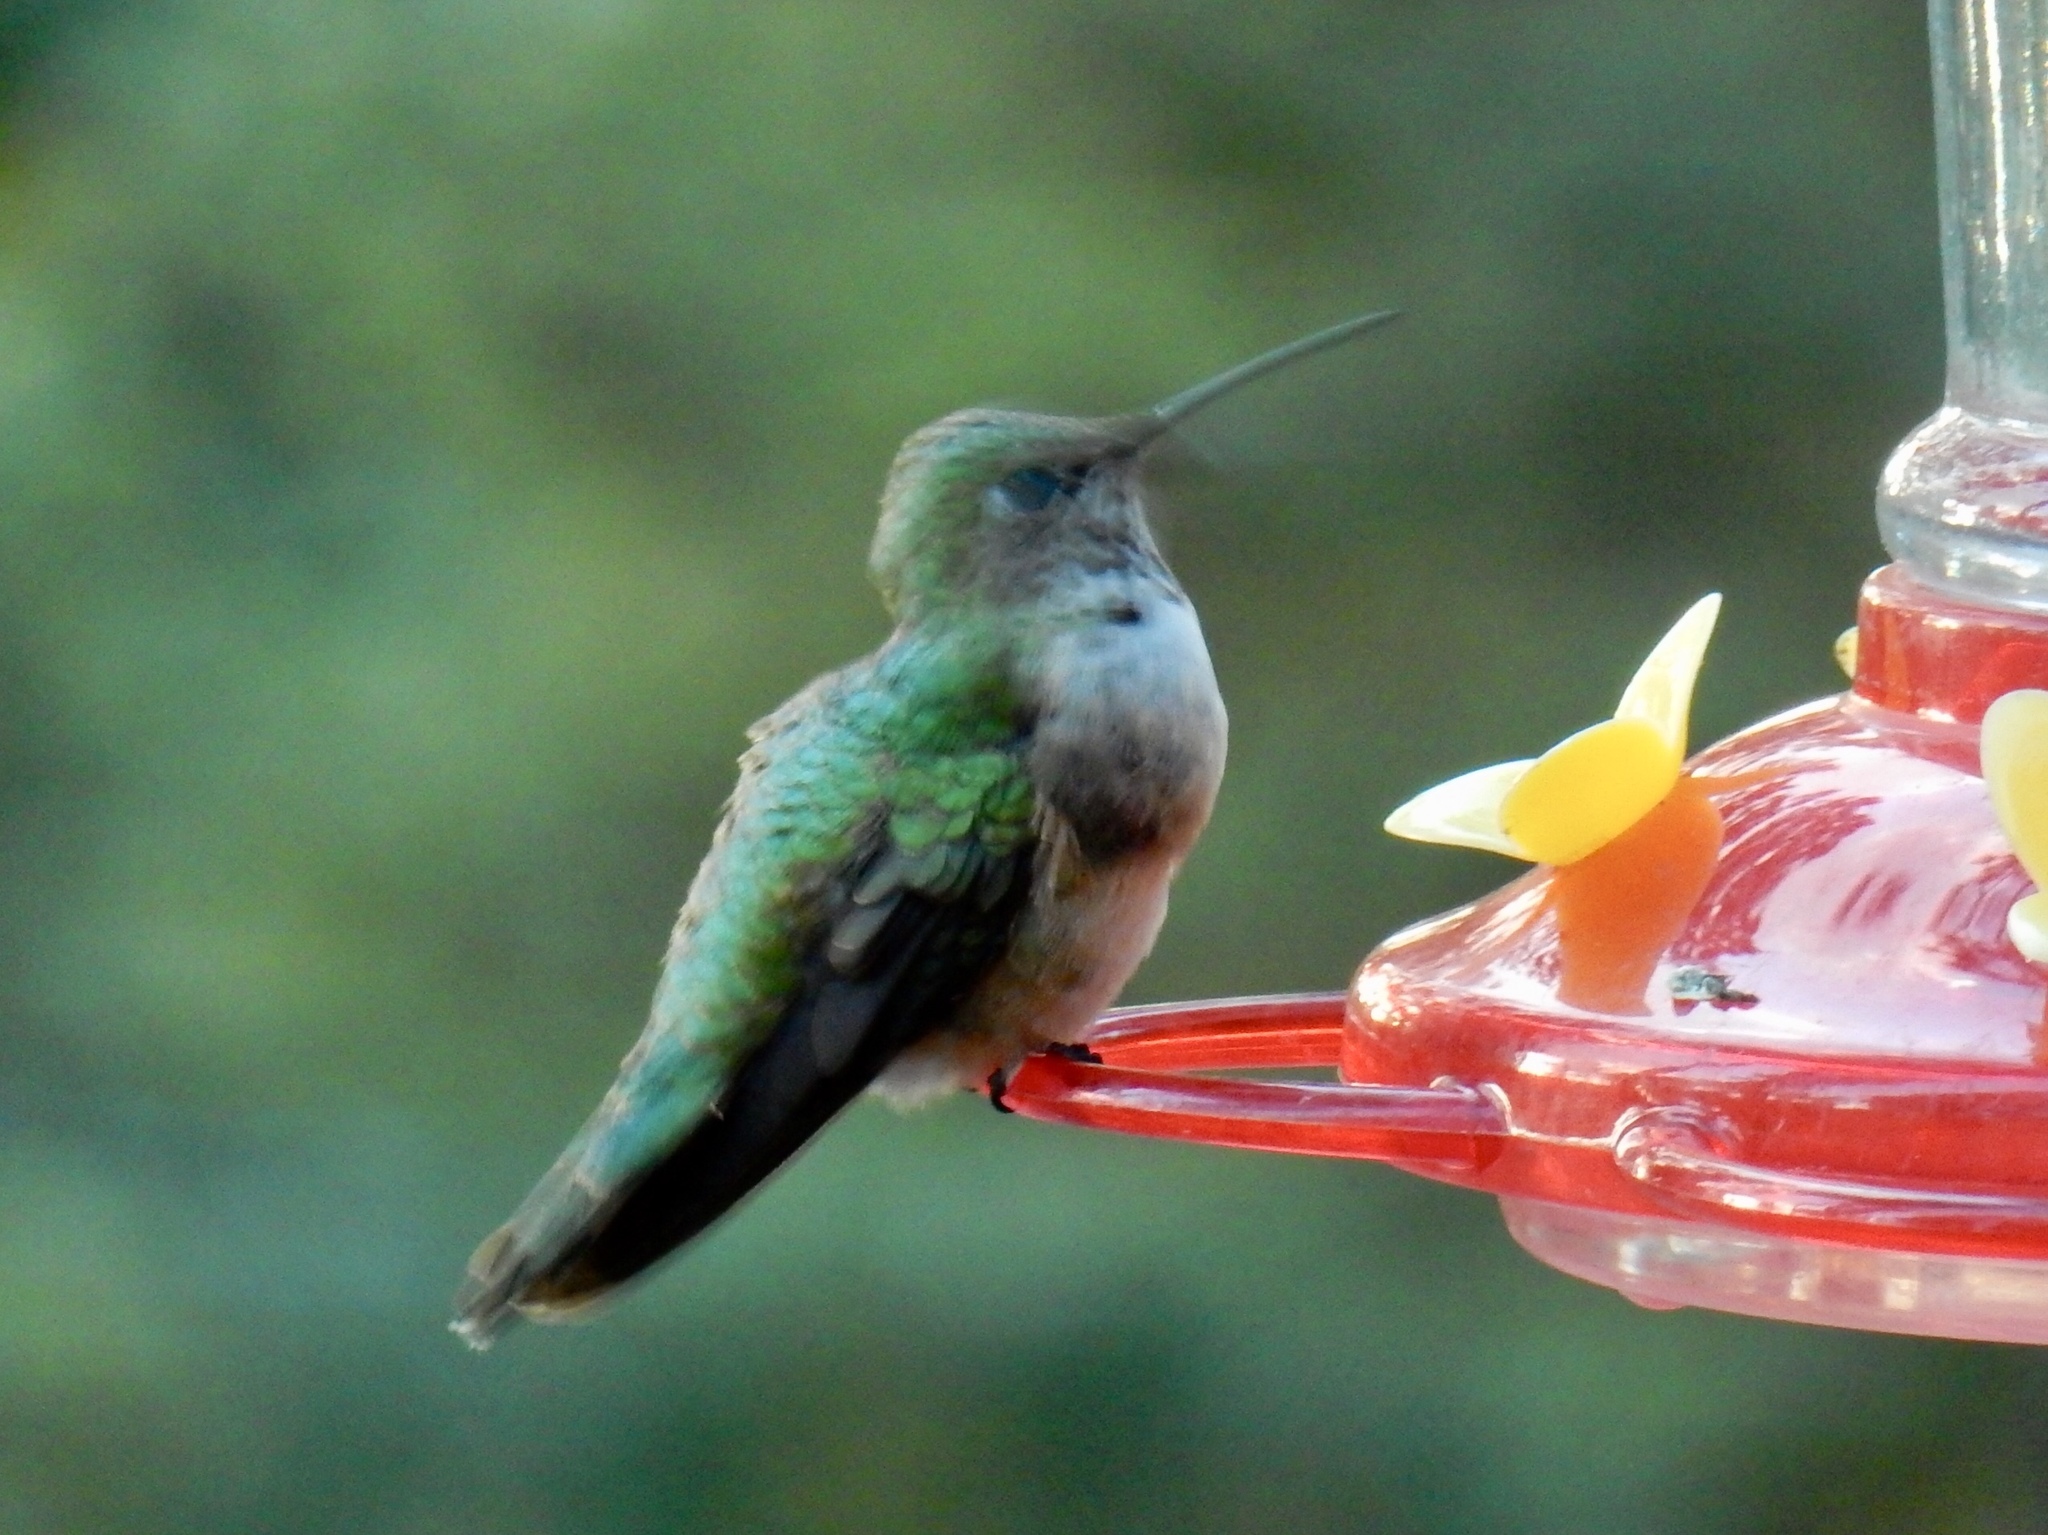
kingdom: Animalia
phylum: Chordata
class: Aves
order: Apodiformes
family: Trochilidae
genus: Selasphorus
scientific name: Selasphorus platycercus
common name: Broad-tailed hummingbird
